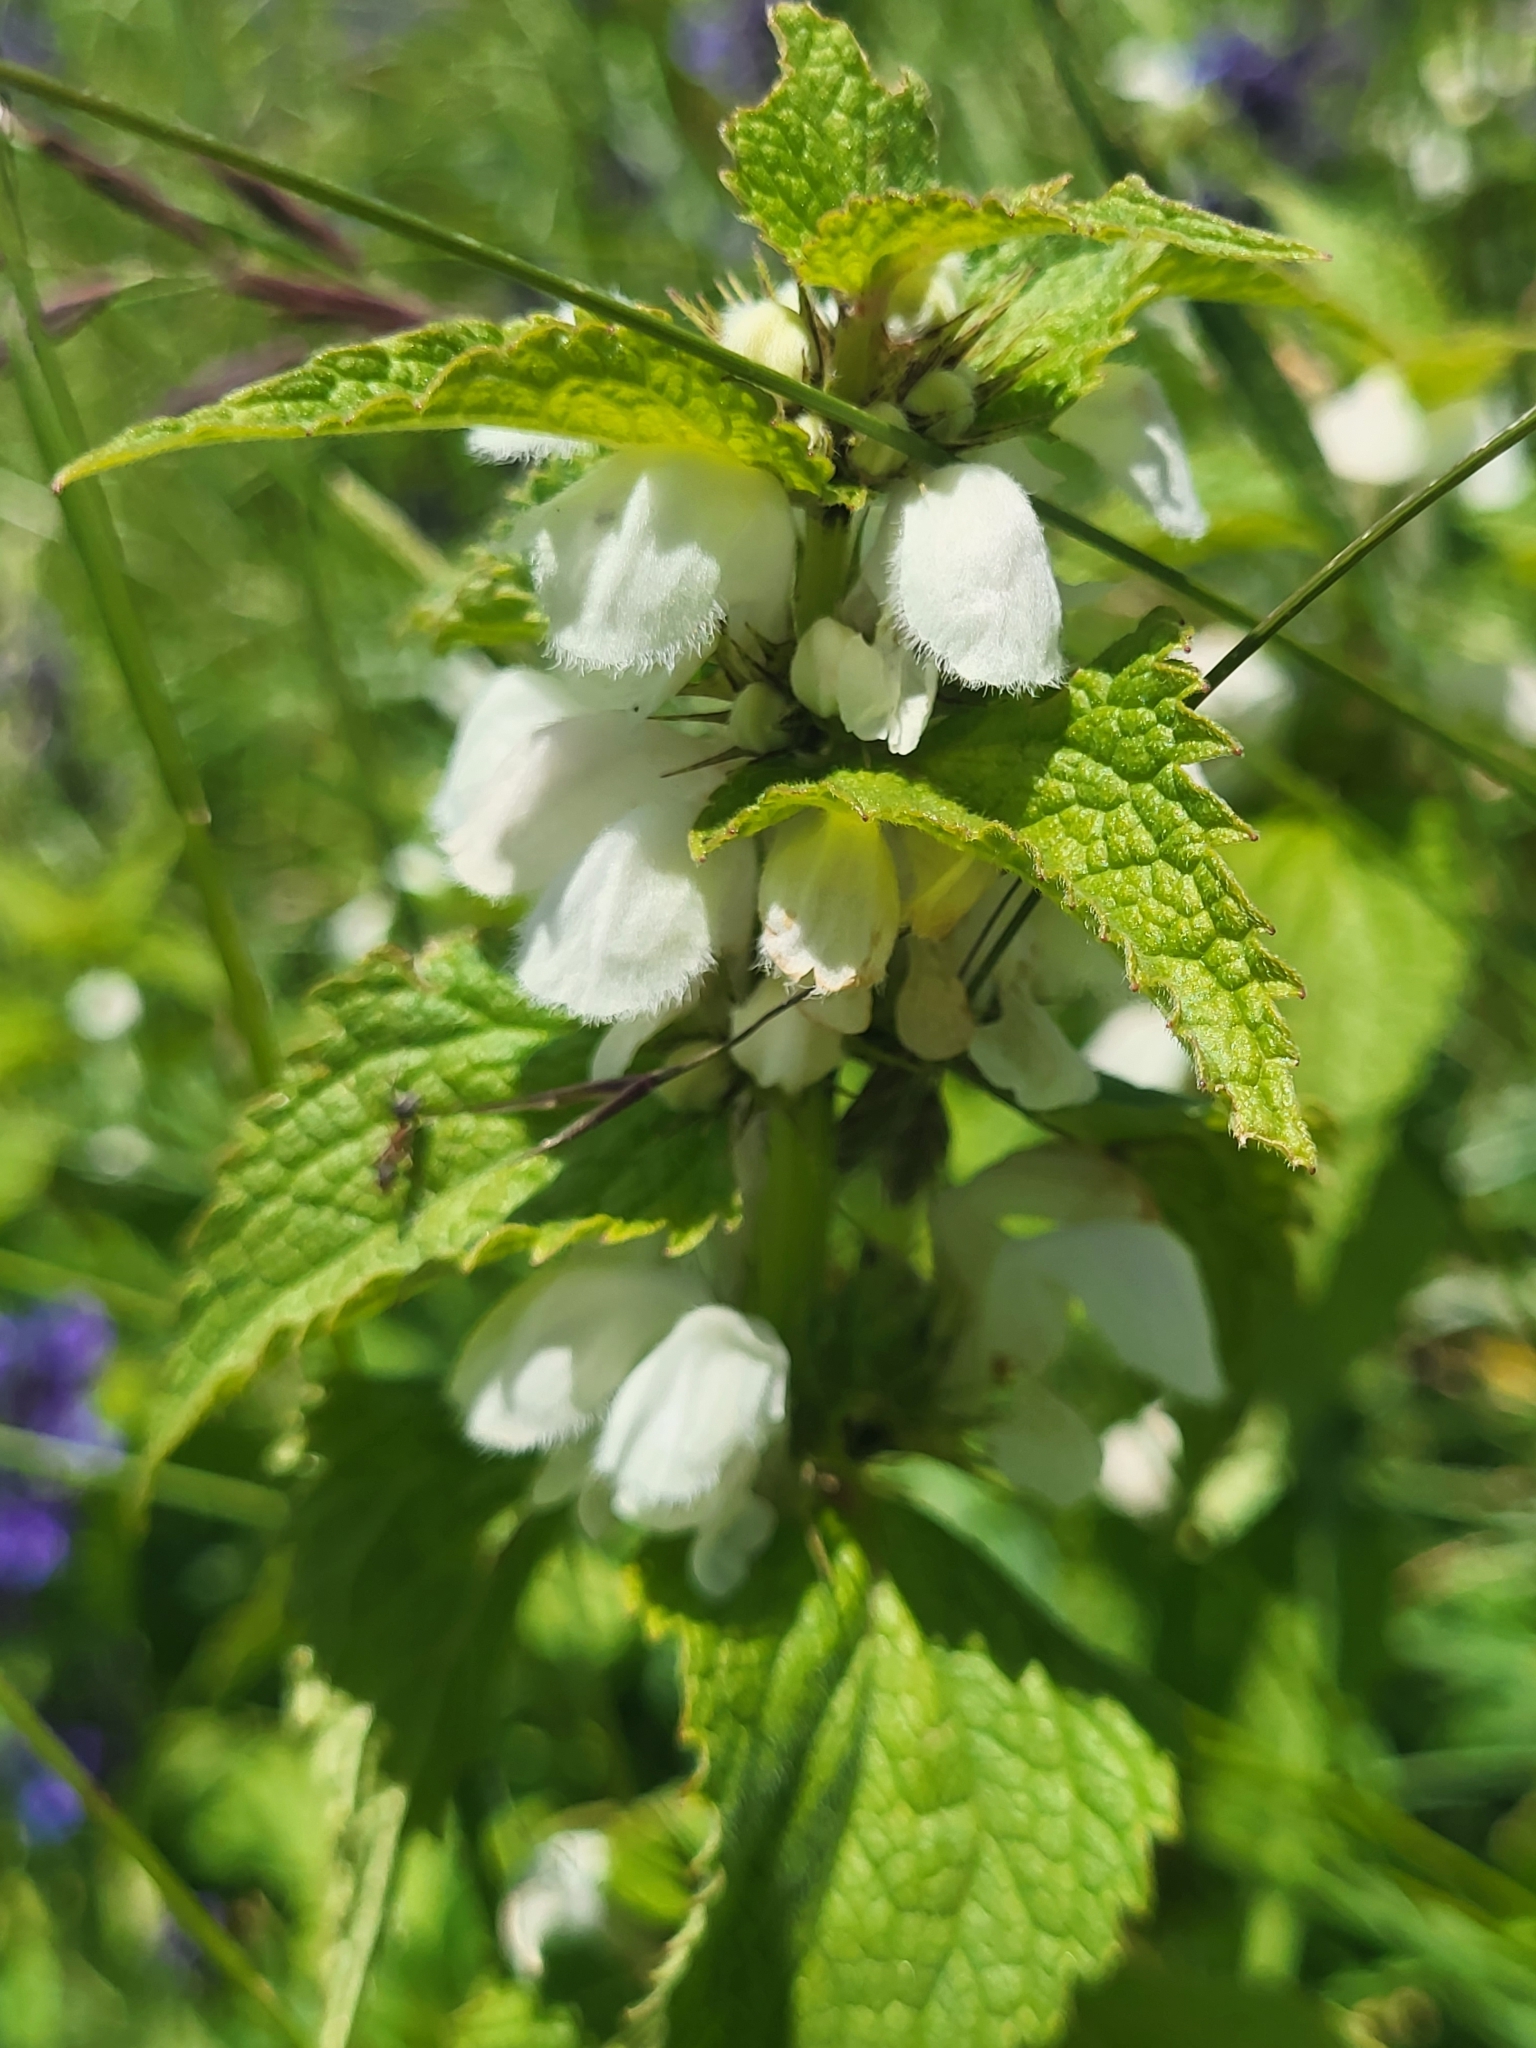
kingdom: Plantae
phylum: Tracheophyta
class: Magnoliopsida
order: Lamiales
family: Lamiaceae
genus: Lamium
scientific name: Lamium album
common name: White dead-nettle
